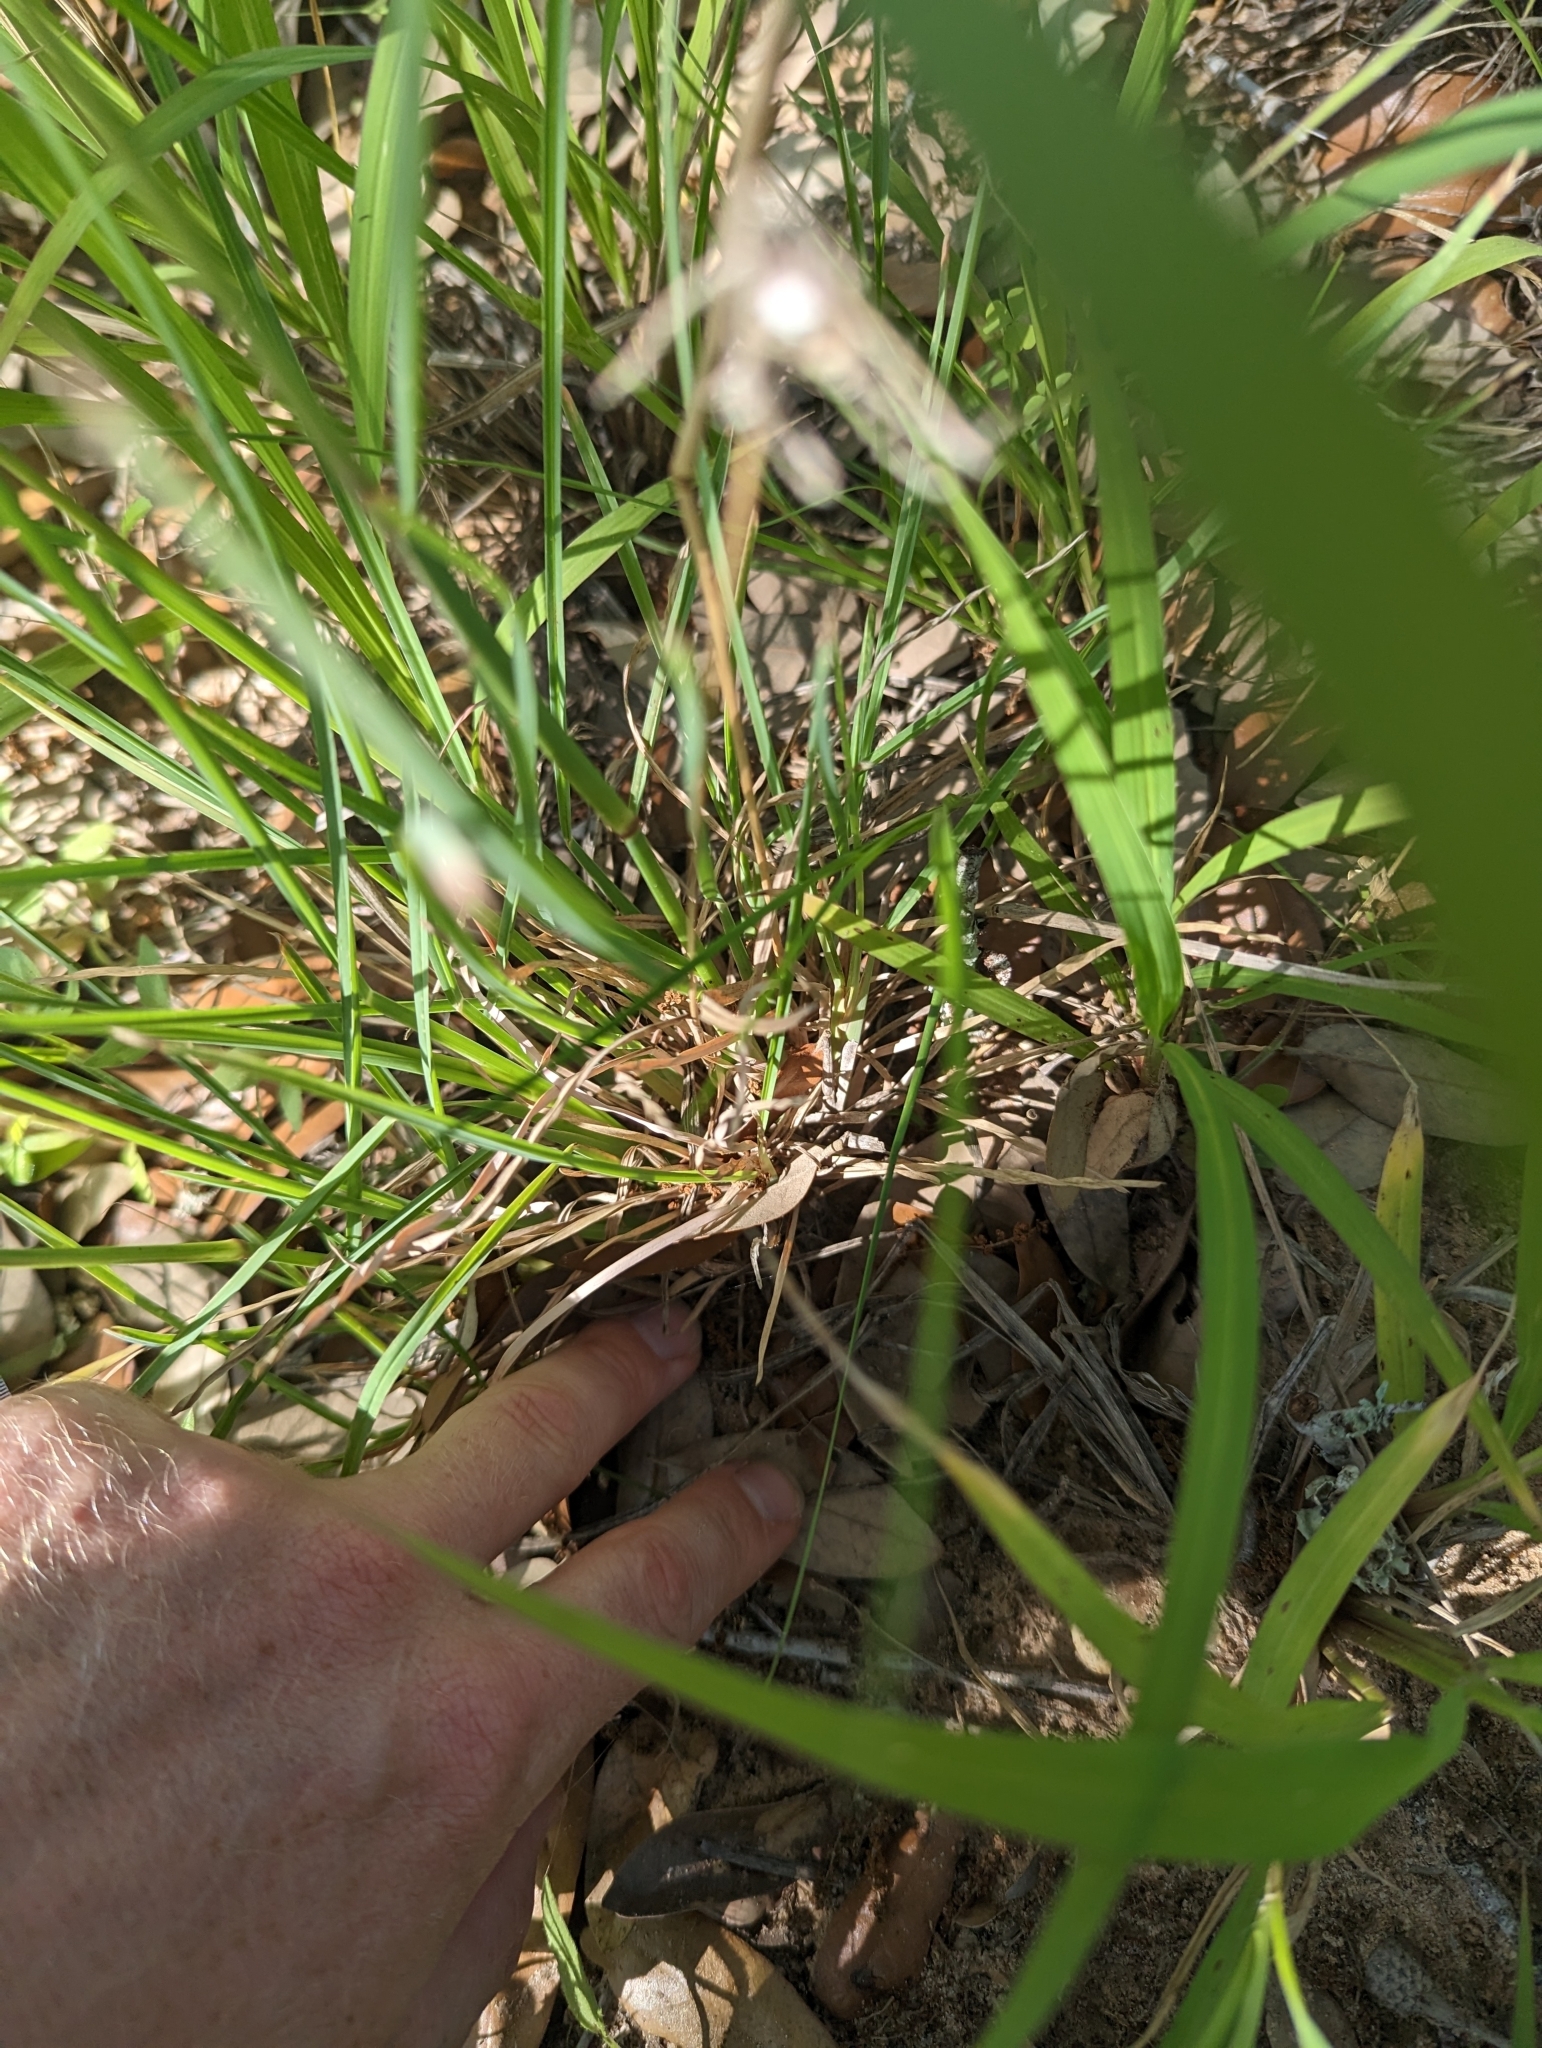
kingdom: Plantae
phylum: Tracheophyta
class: Liliopsida
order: Poales
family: Poaceae
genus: Chloris
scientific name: Chloris cucullata
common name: Hooded windmill grass
